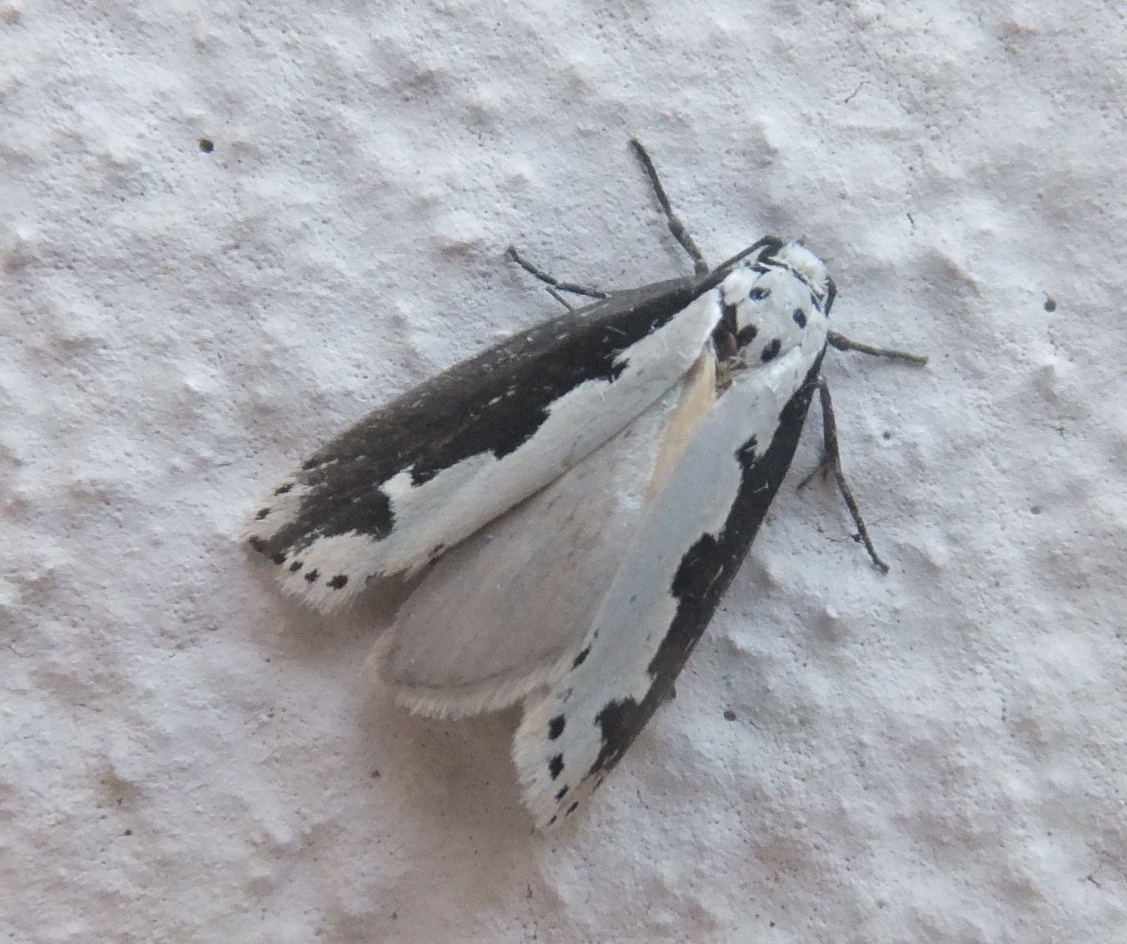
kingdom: Animalia
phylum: Arthropoda
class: Insecta
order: Lepidoptera
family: Ethmiidae
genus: Ethmia
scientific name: Ethmia bipunctella
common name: Bordered ermel
